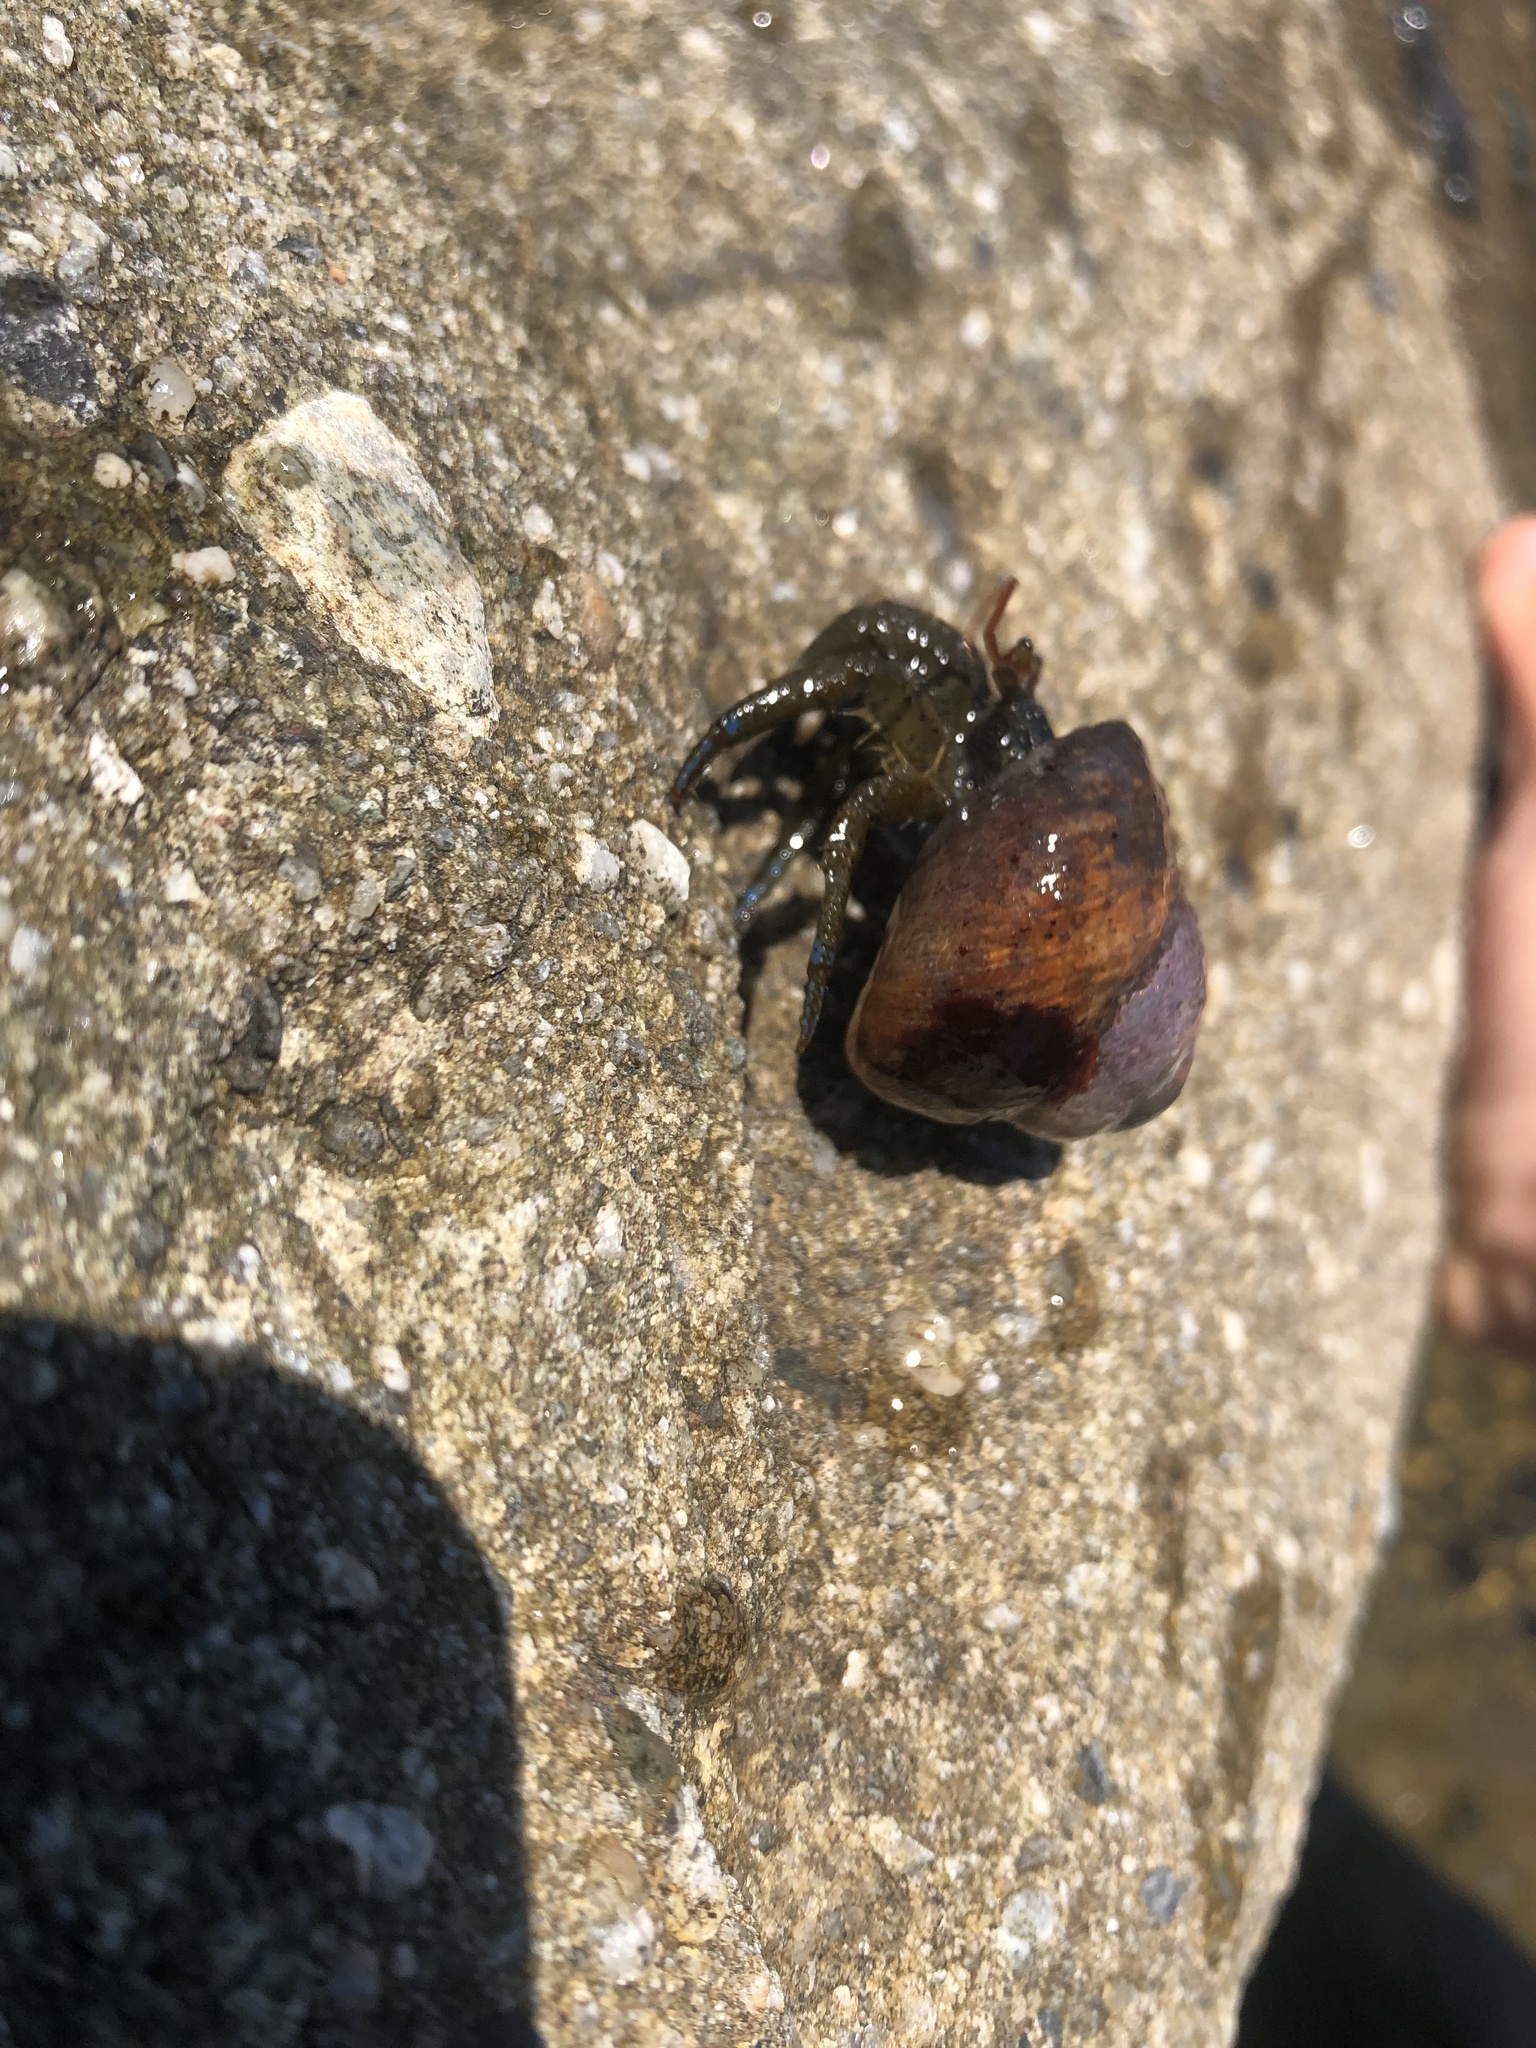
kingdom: Animalia
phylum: Arthropoda
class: Malacostraca
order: Decapoda
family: Paguridae
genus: Pagurus
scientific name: Pagurus samuelis
